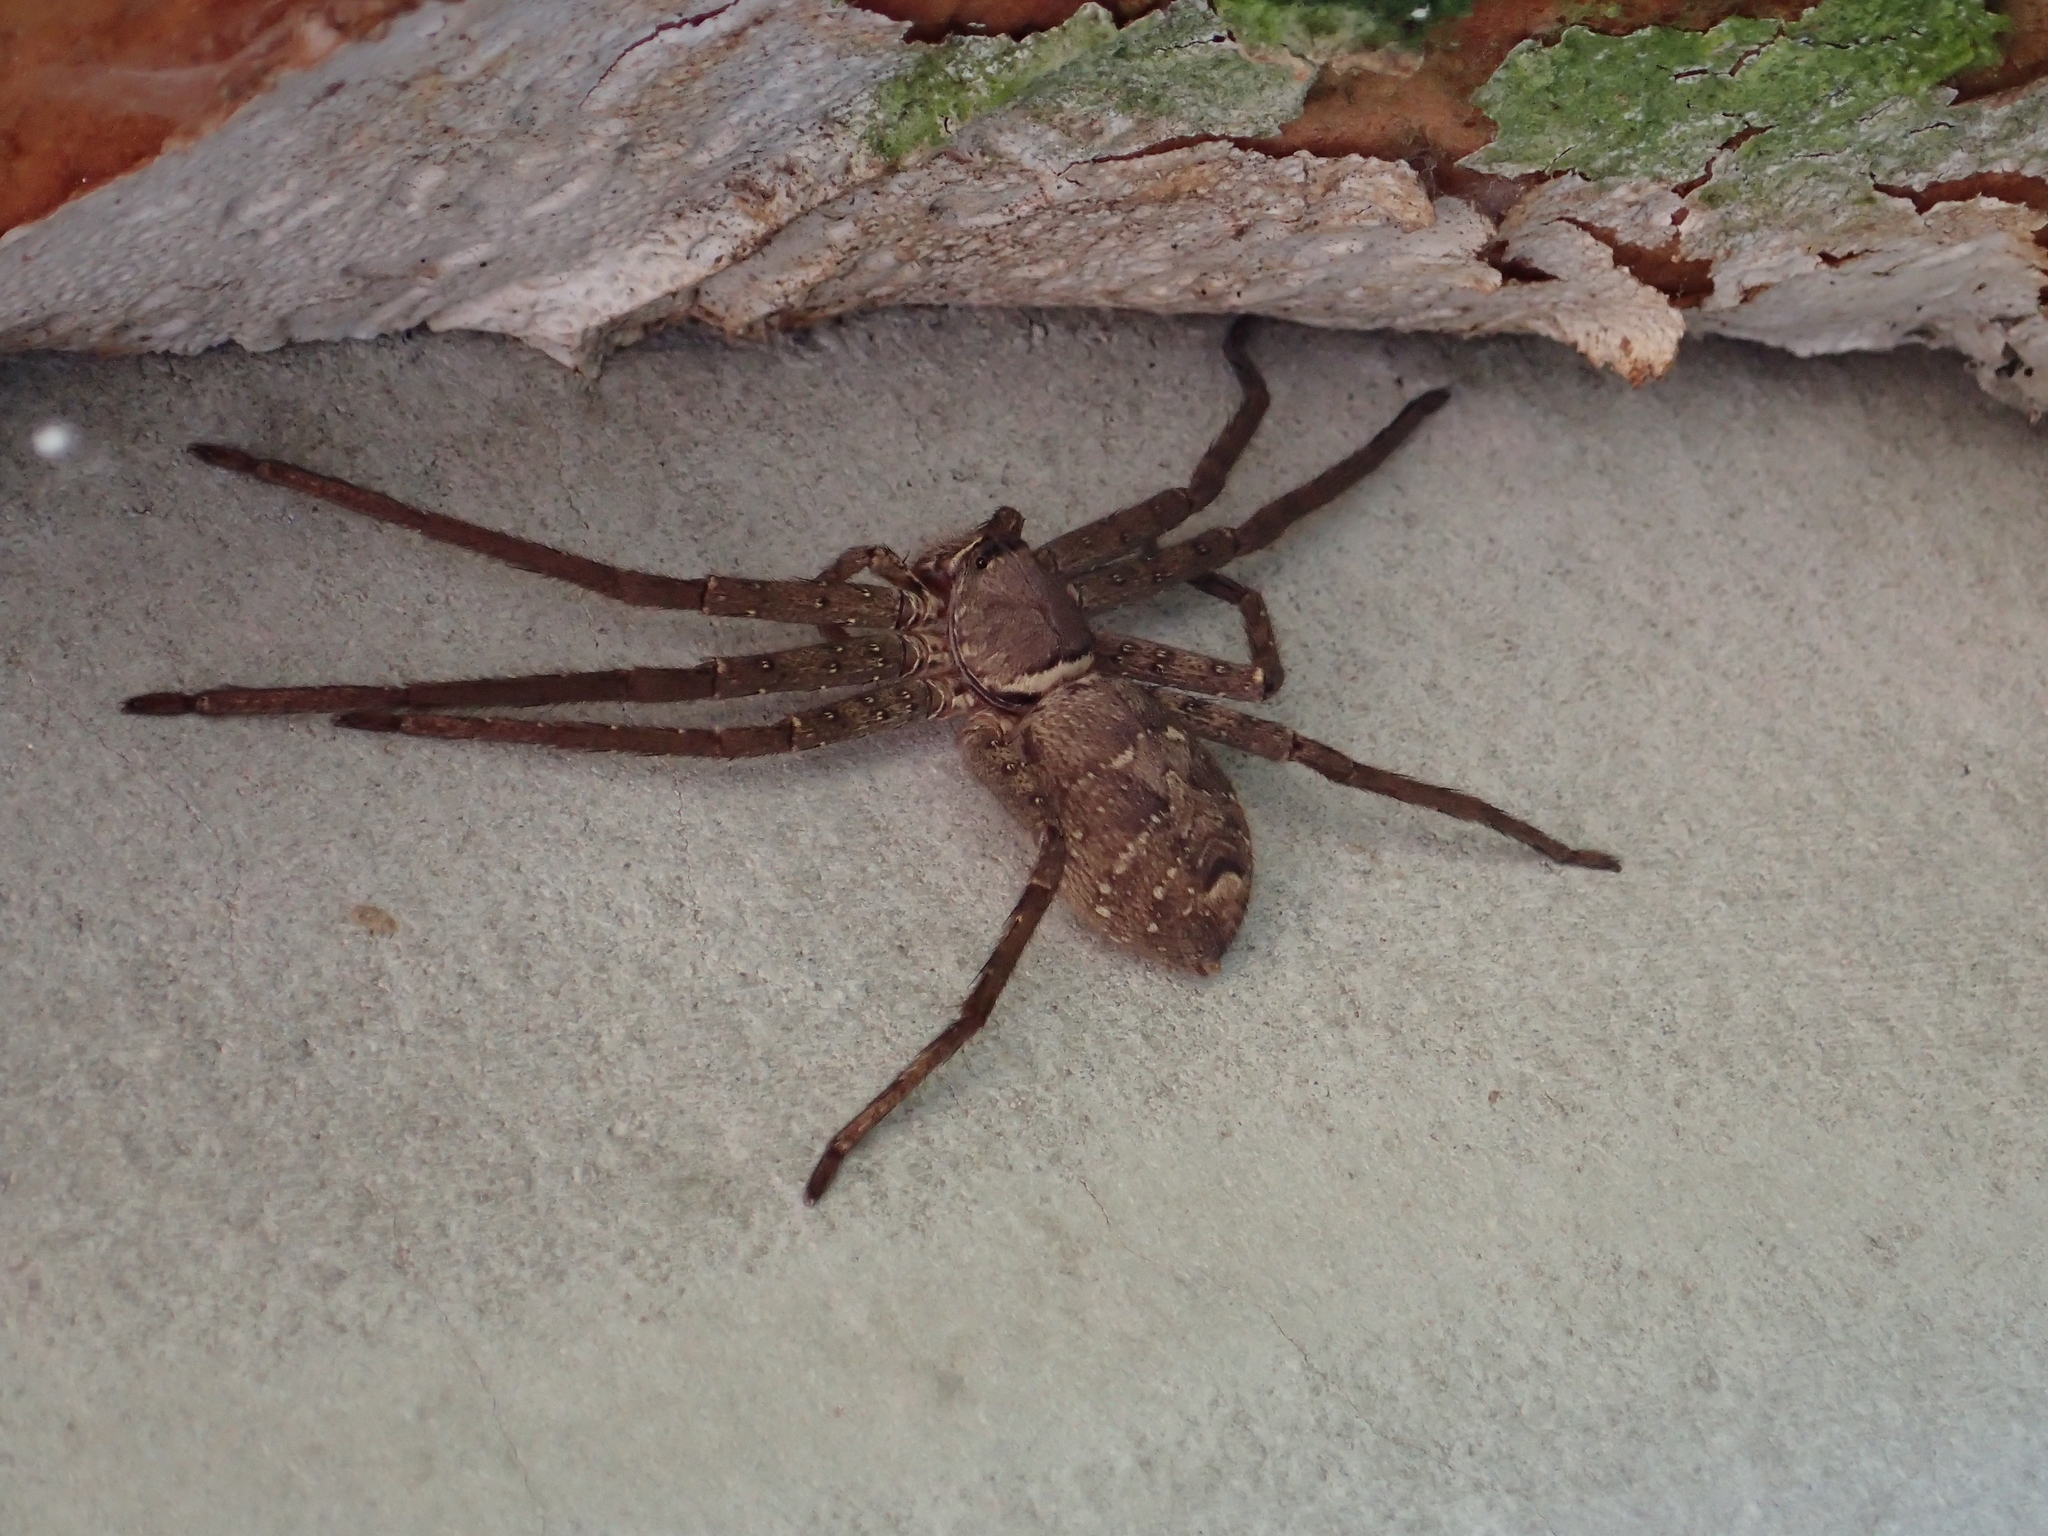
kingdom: Animalia
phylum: Arthropoda
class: Arachnida
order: Araneae
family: Sparassidae
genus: Heteropoda
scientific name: Heteropoda venatoria
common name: Huntsman spider
